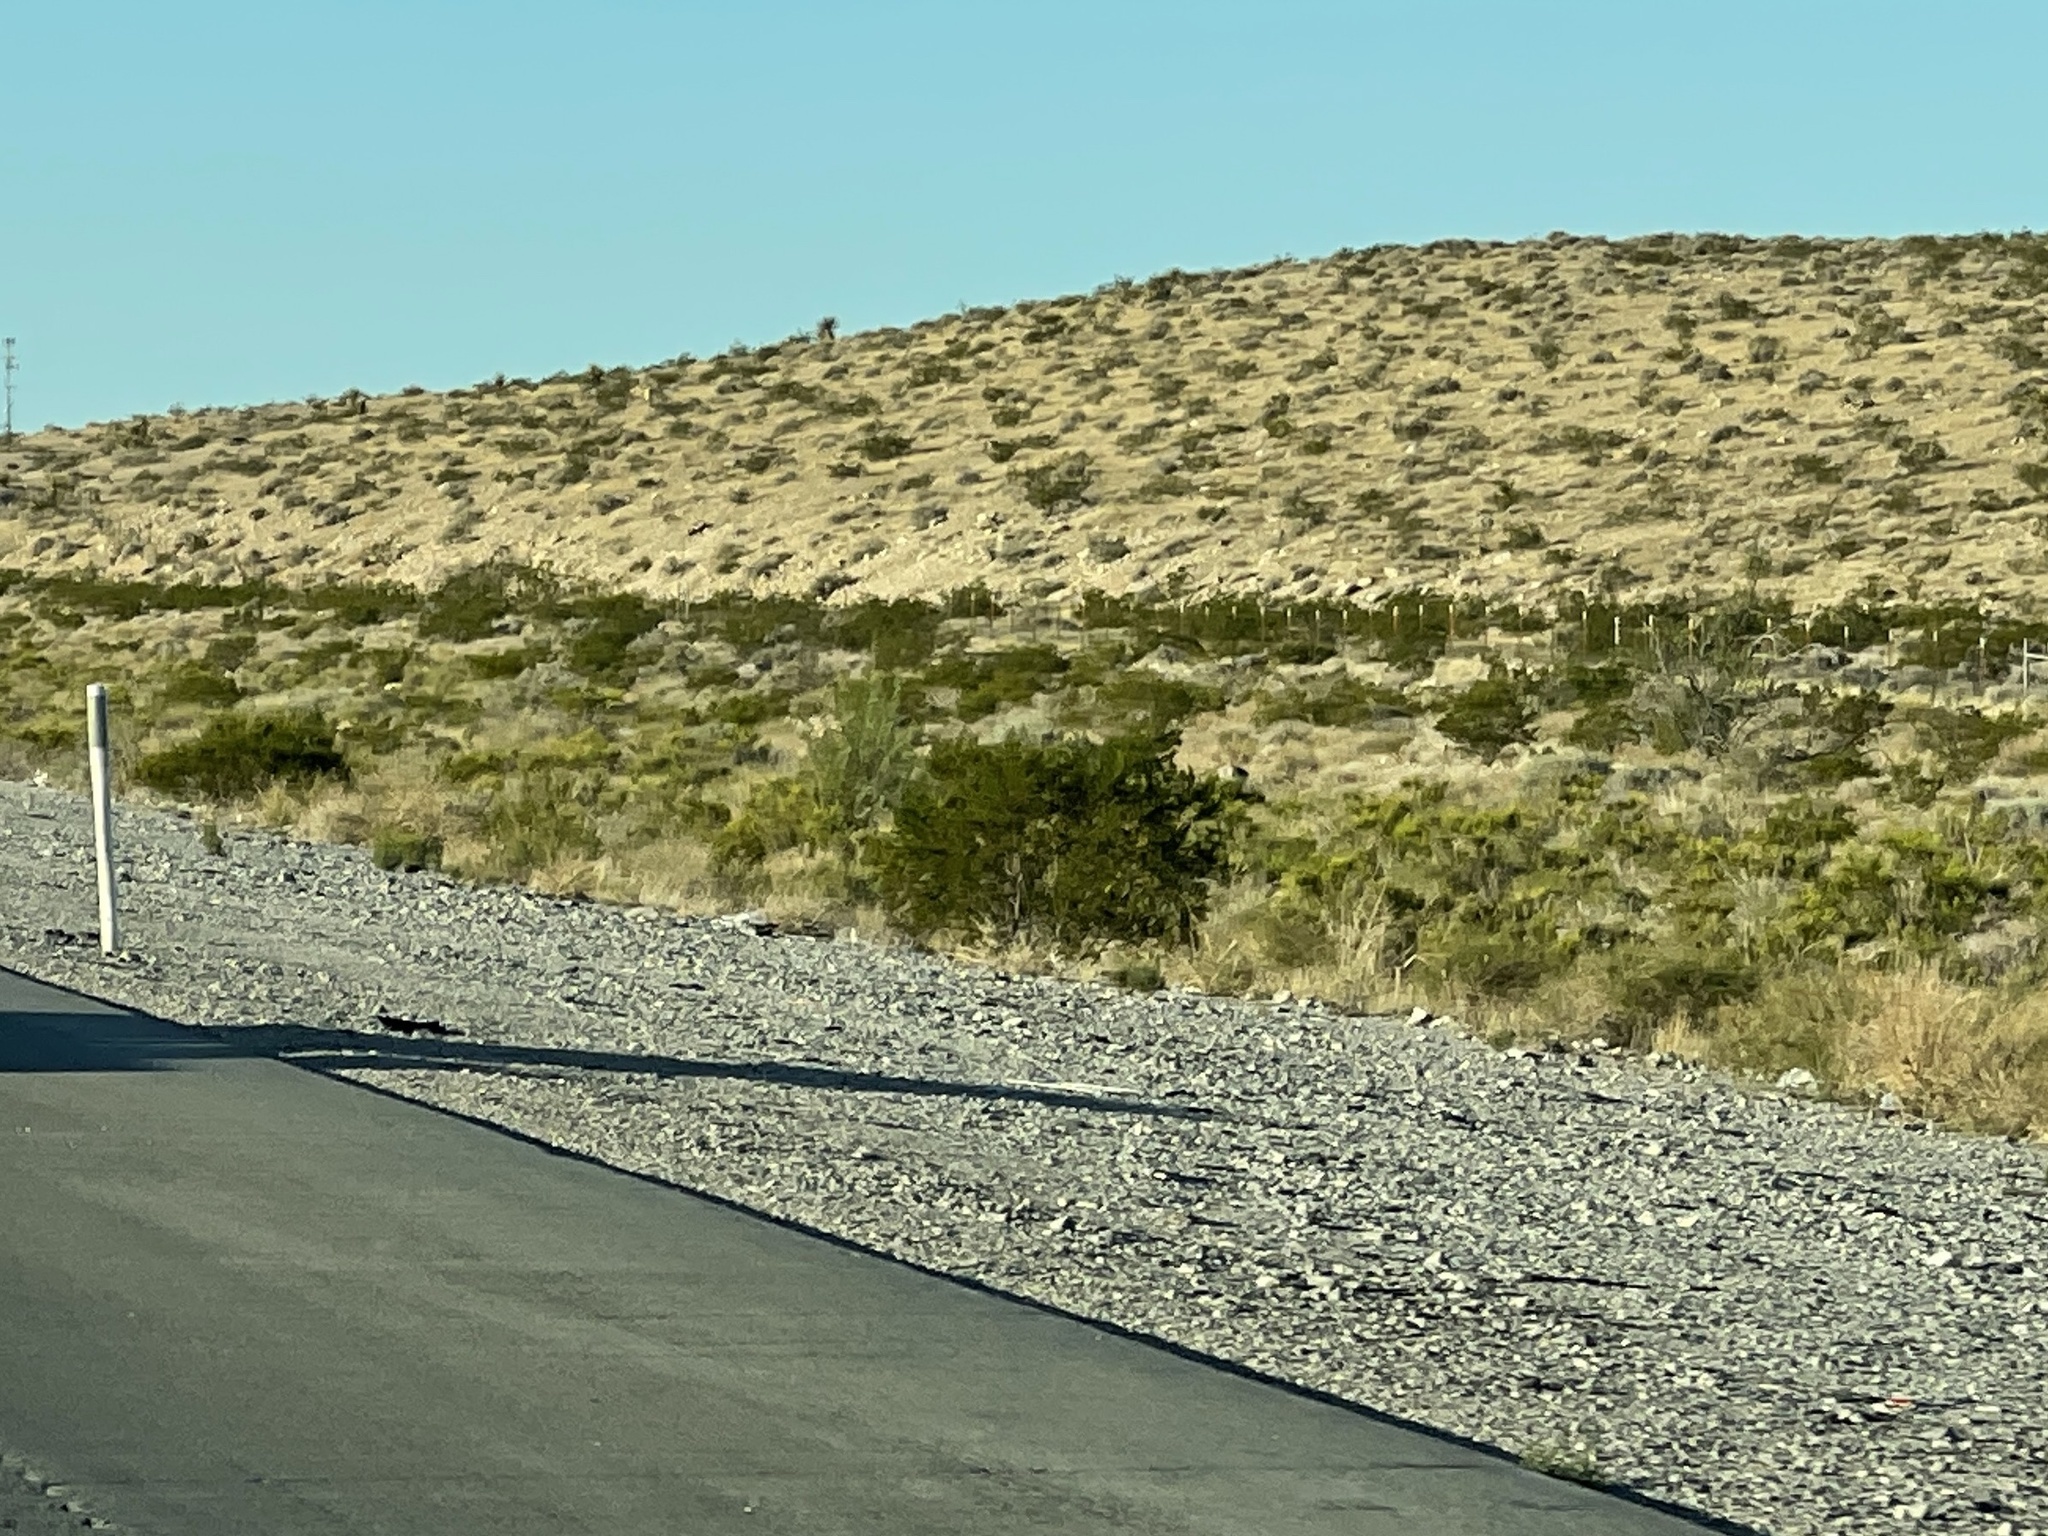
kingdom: Plantae
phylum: Tracheophyta
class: Magnoliopsida
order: Zygophyllales
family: Zygophyllaceae
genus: Larrea
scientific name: Larrea tridentata
